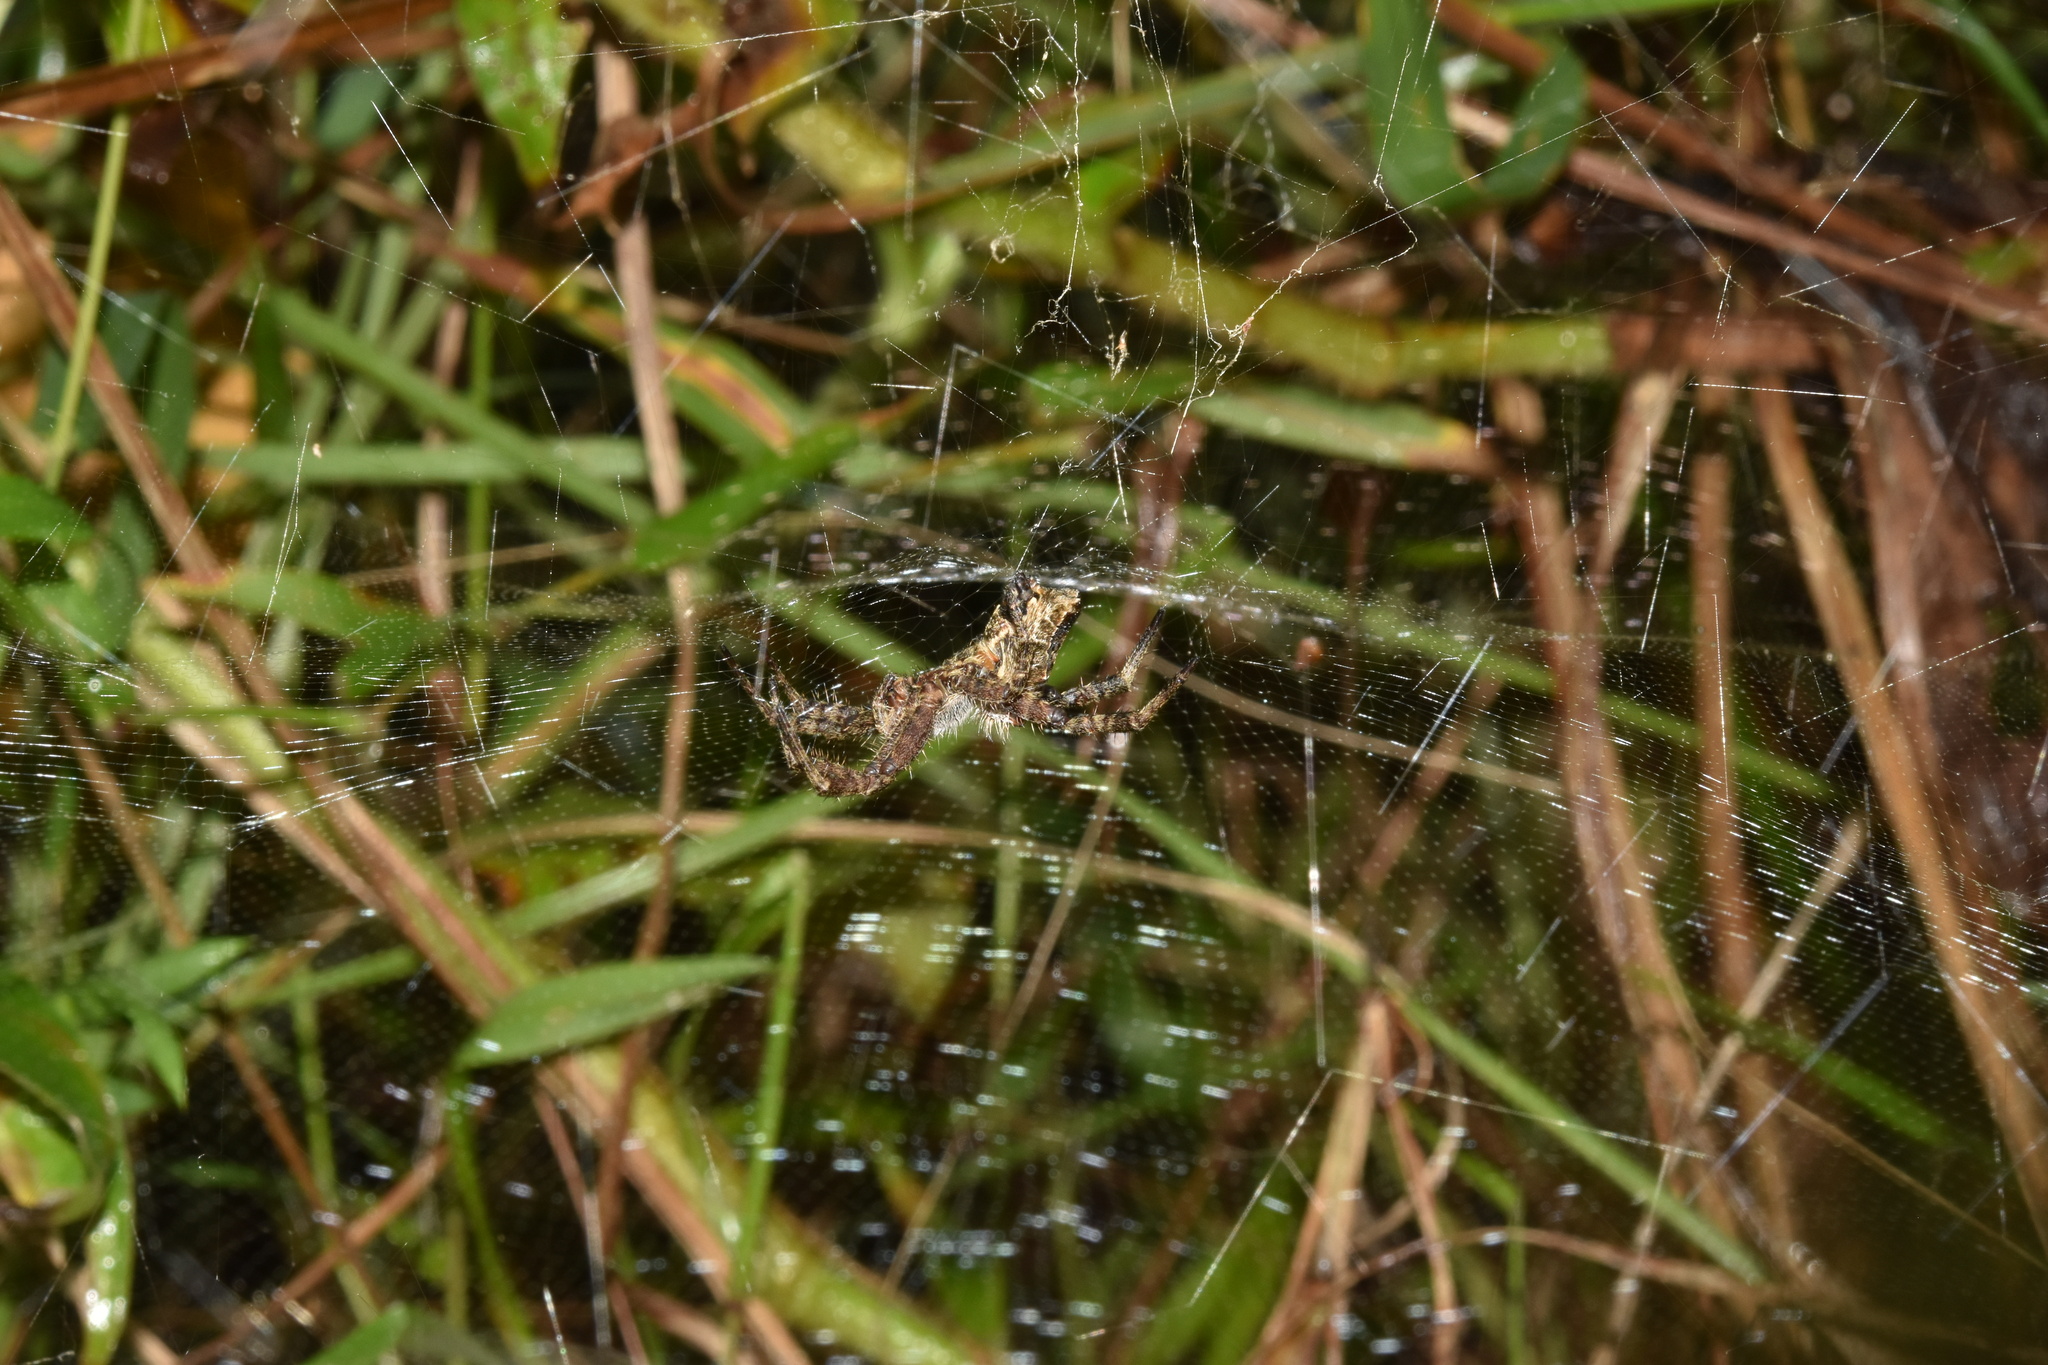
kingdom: Animalia
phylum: Arthropoda
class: Arachnida
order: Araneae
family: Araneidae
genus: Cyrtophora
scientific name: Cyrtophora citricola
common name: Orb weavers
